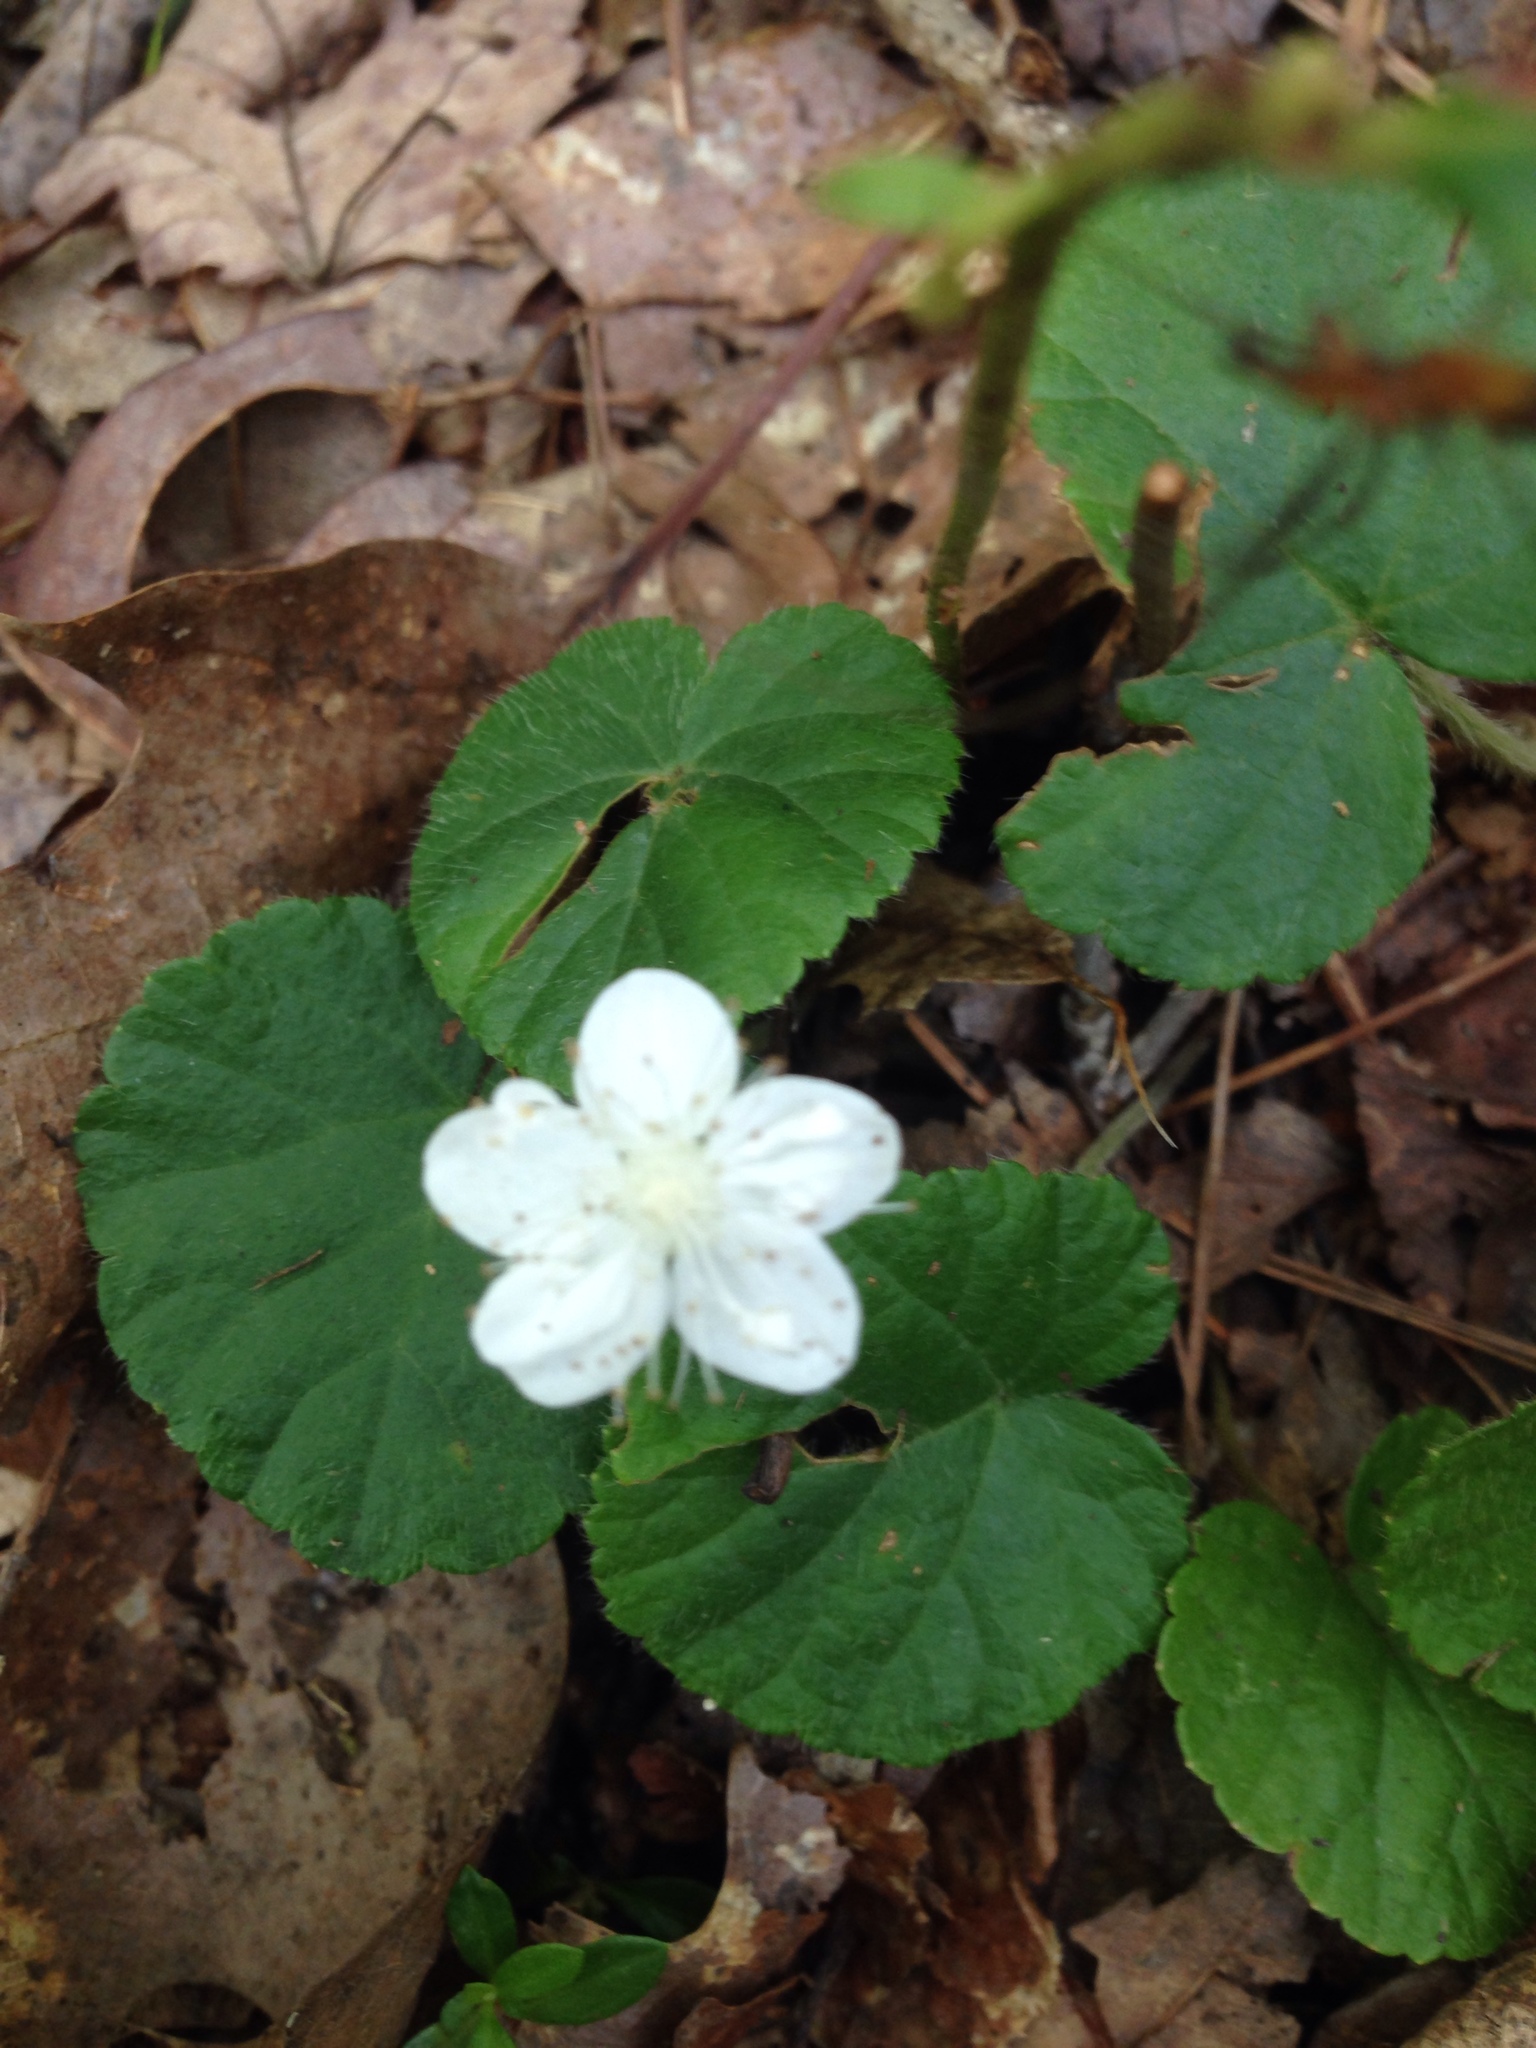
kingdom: Plantae
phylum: Tracheophyta
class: Magnoliopsida
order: Rosales
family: Rosaceae
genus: Dalibarda
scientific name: Dalibarda repens
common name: Dewdrop
